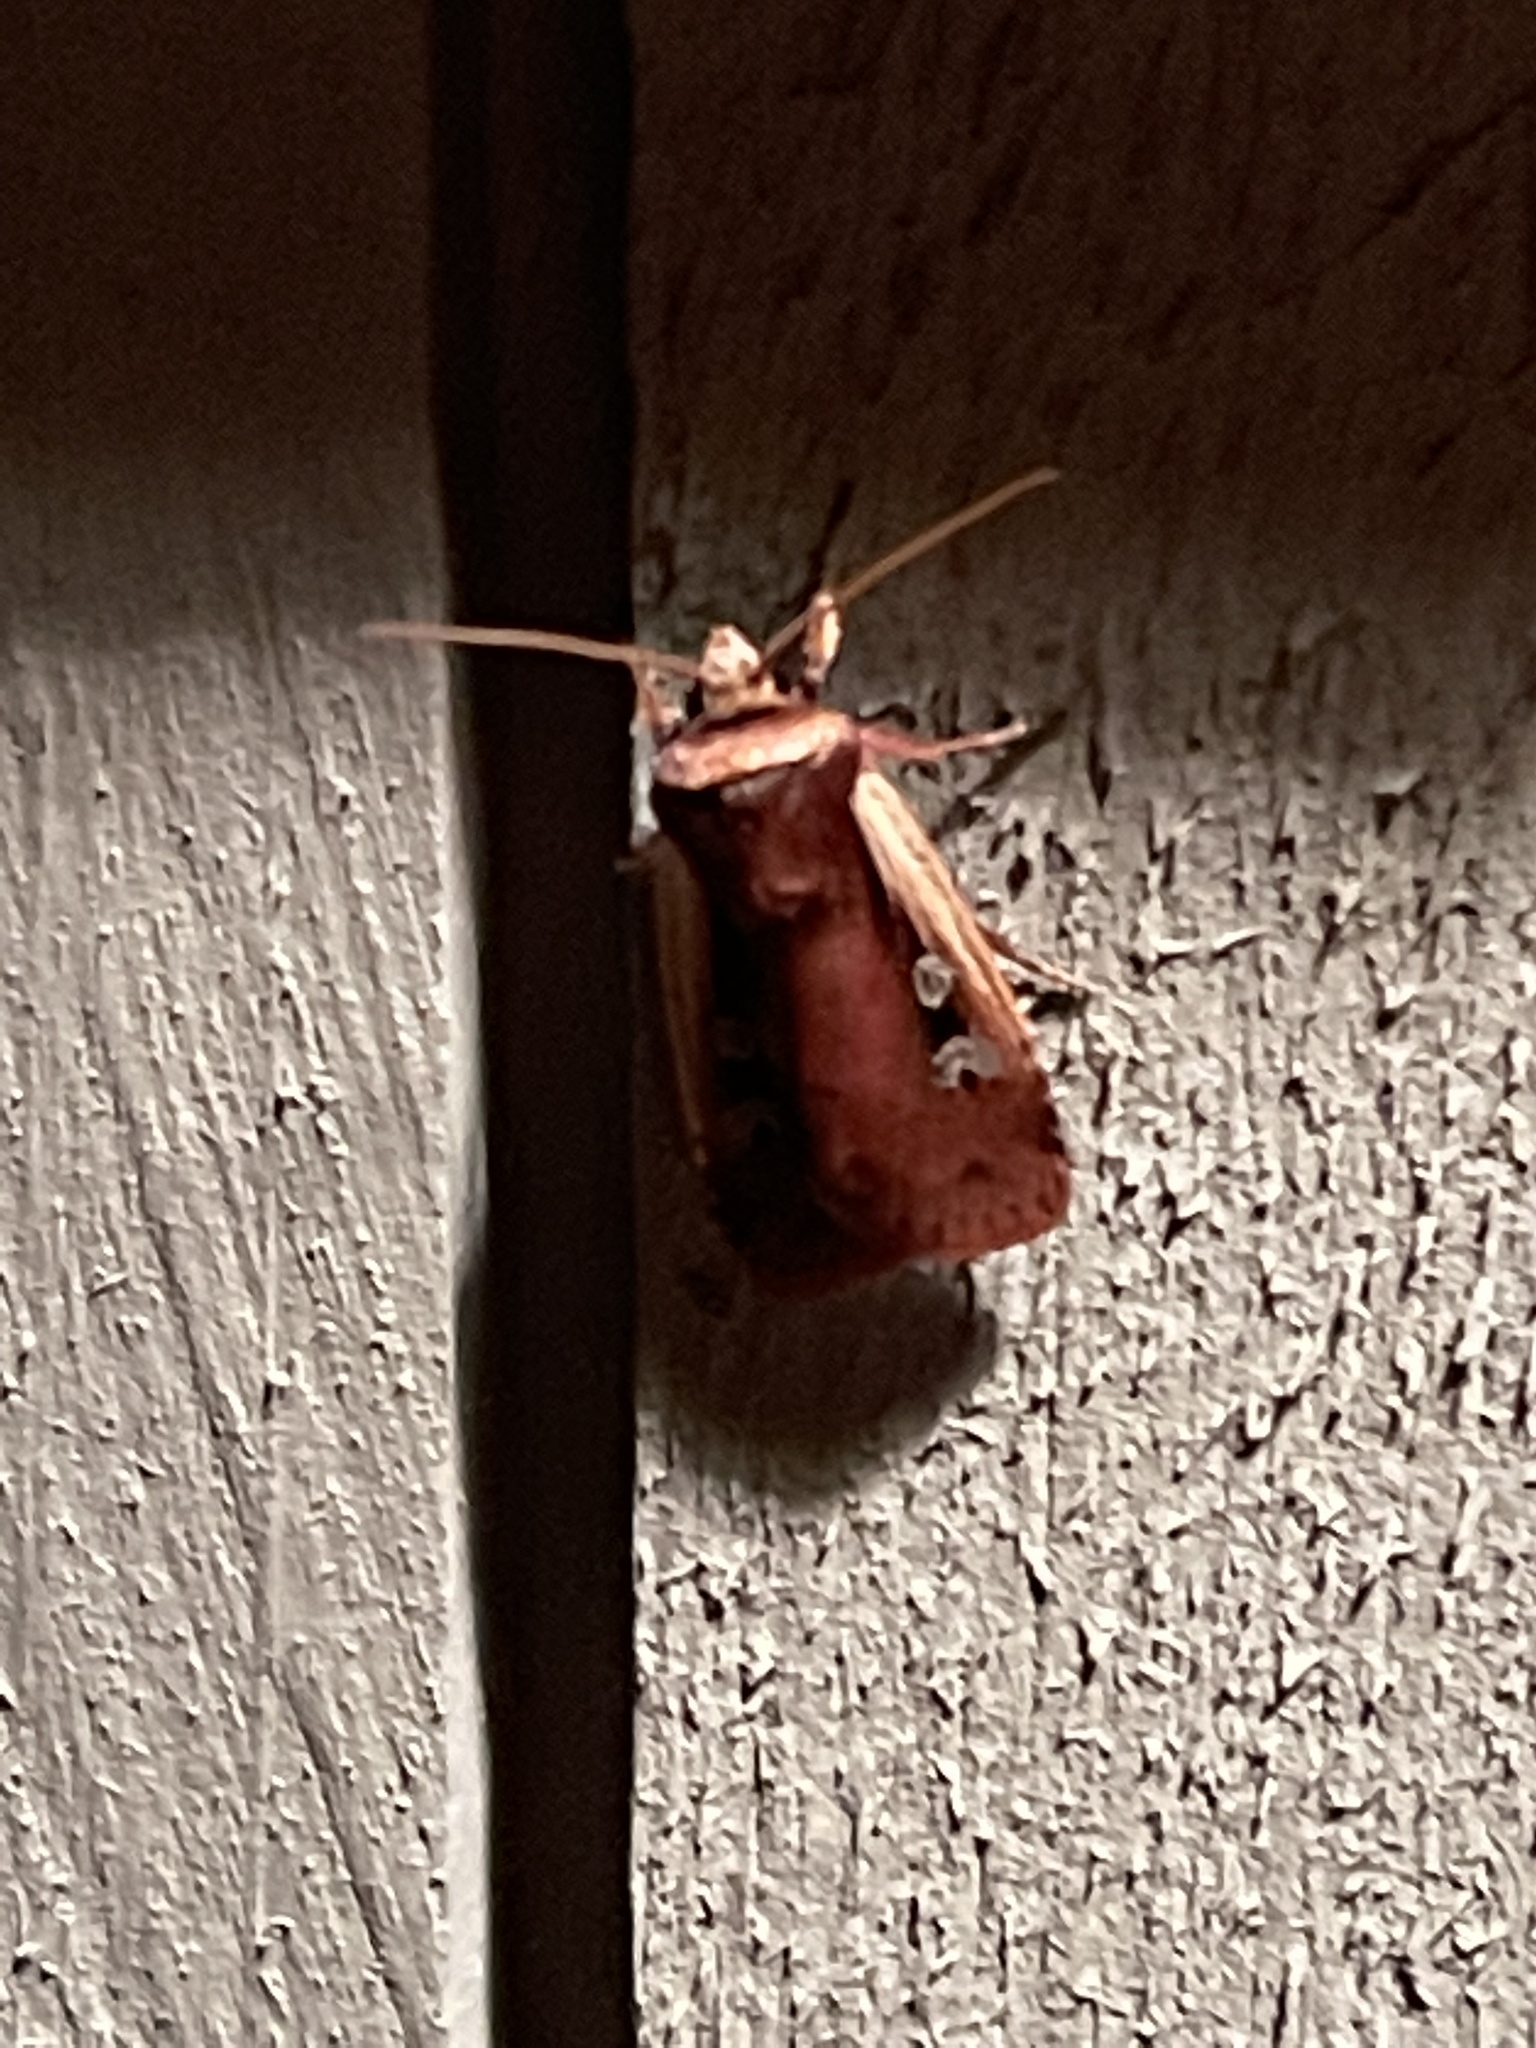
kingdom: Animalia
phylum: Arthropoda
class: Insecta
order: Lepidoptera
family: Noctuidae
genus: Ochropleura
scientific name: Ochropleura implecta
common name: Flame-shouldered dart
